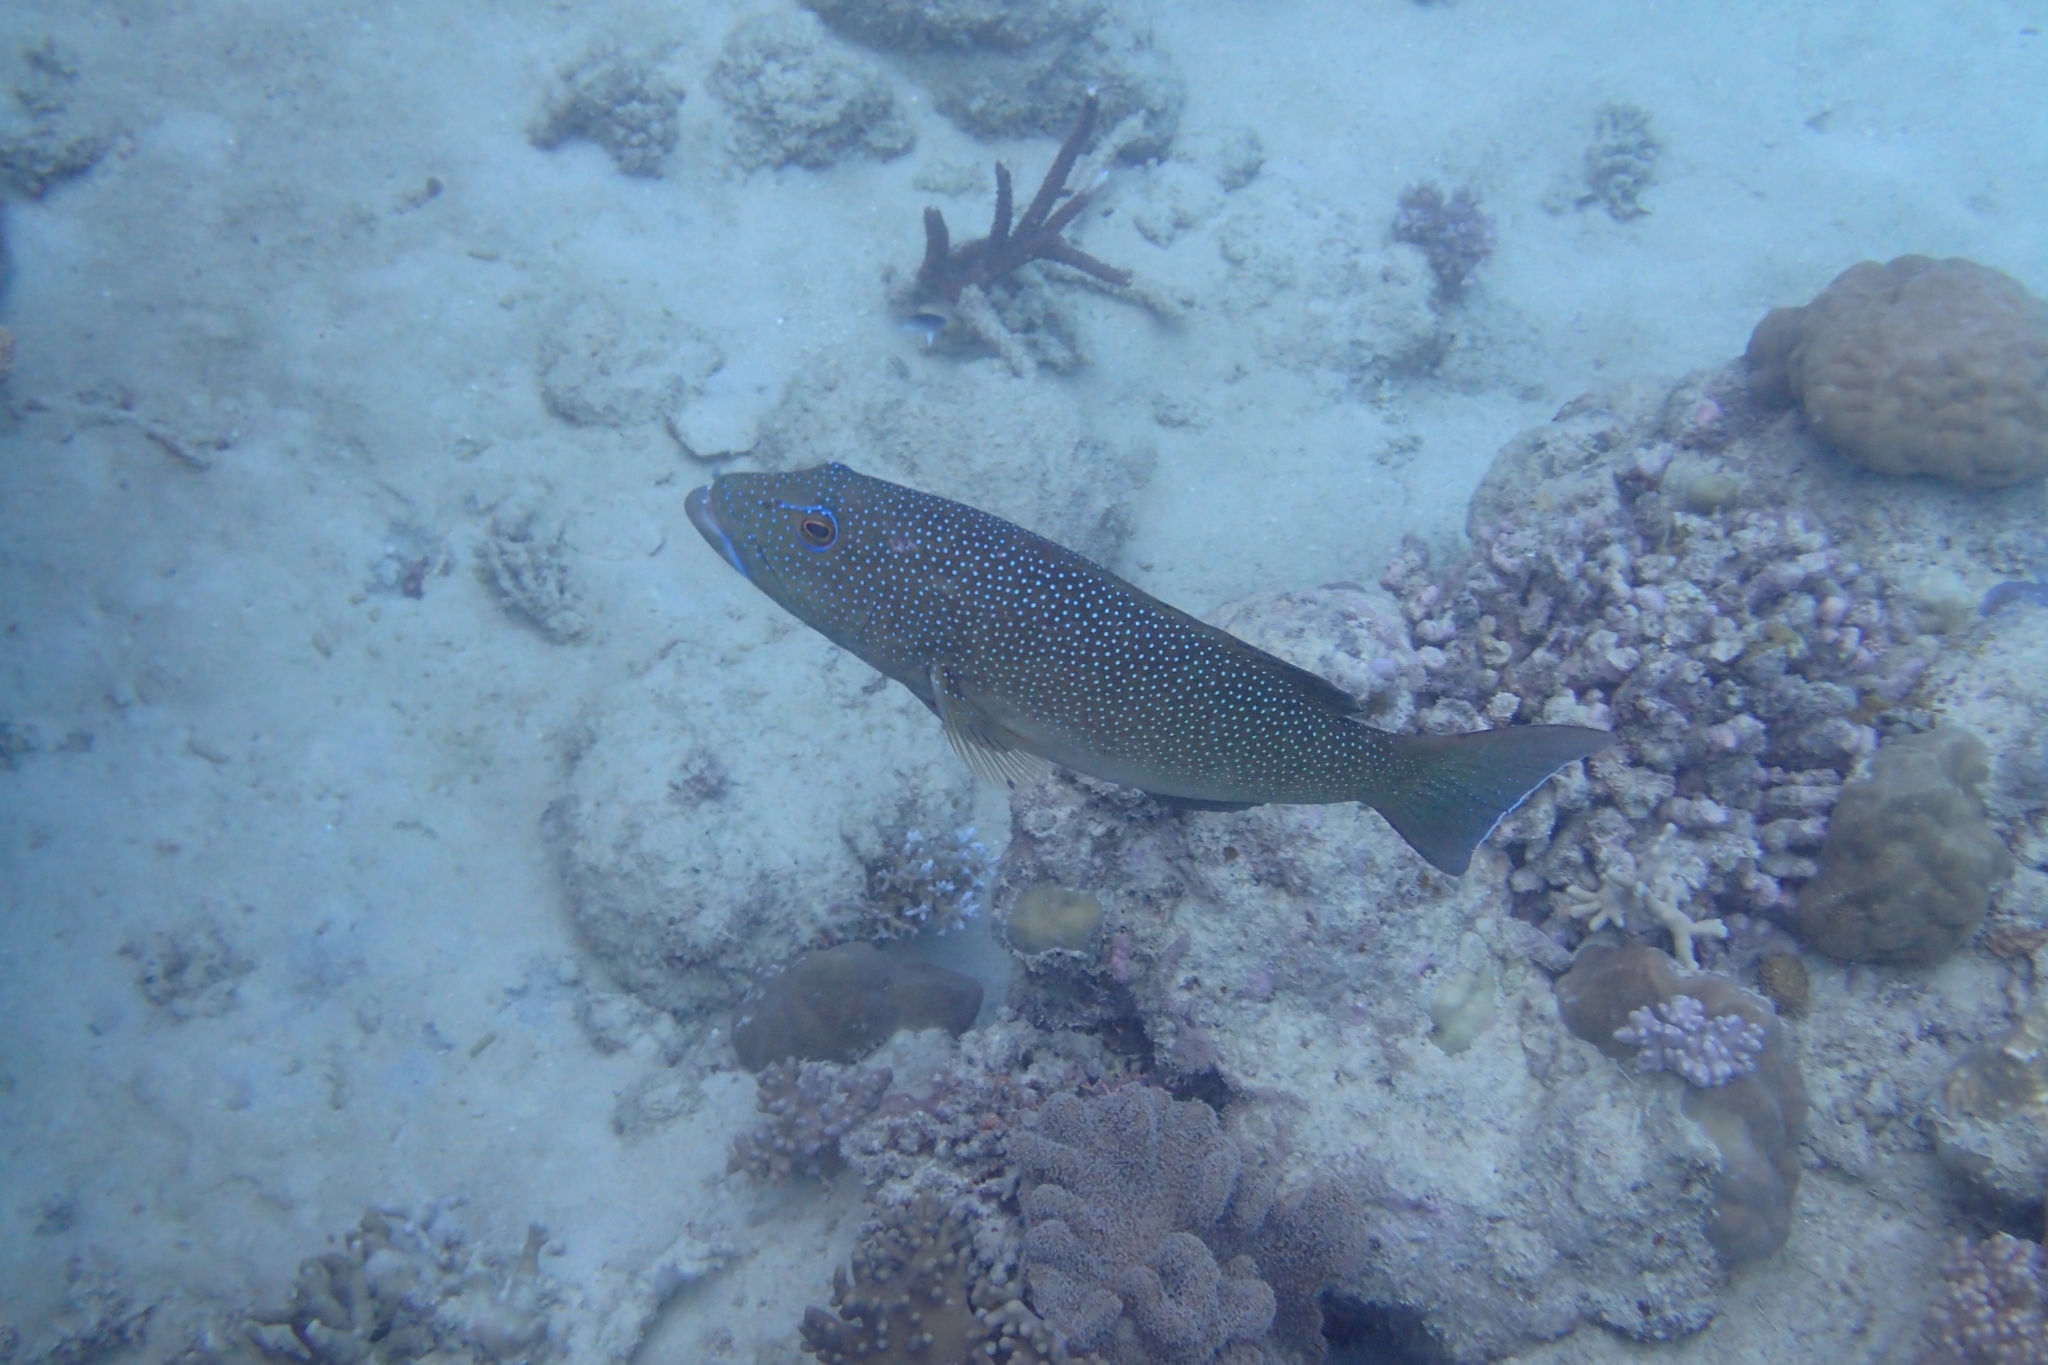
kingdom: Animalia
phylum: Chordata
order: Perciformes
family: Serranidae
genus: Plectropomus
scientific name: Plectropomus leopardus
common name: Coral trout
